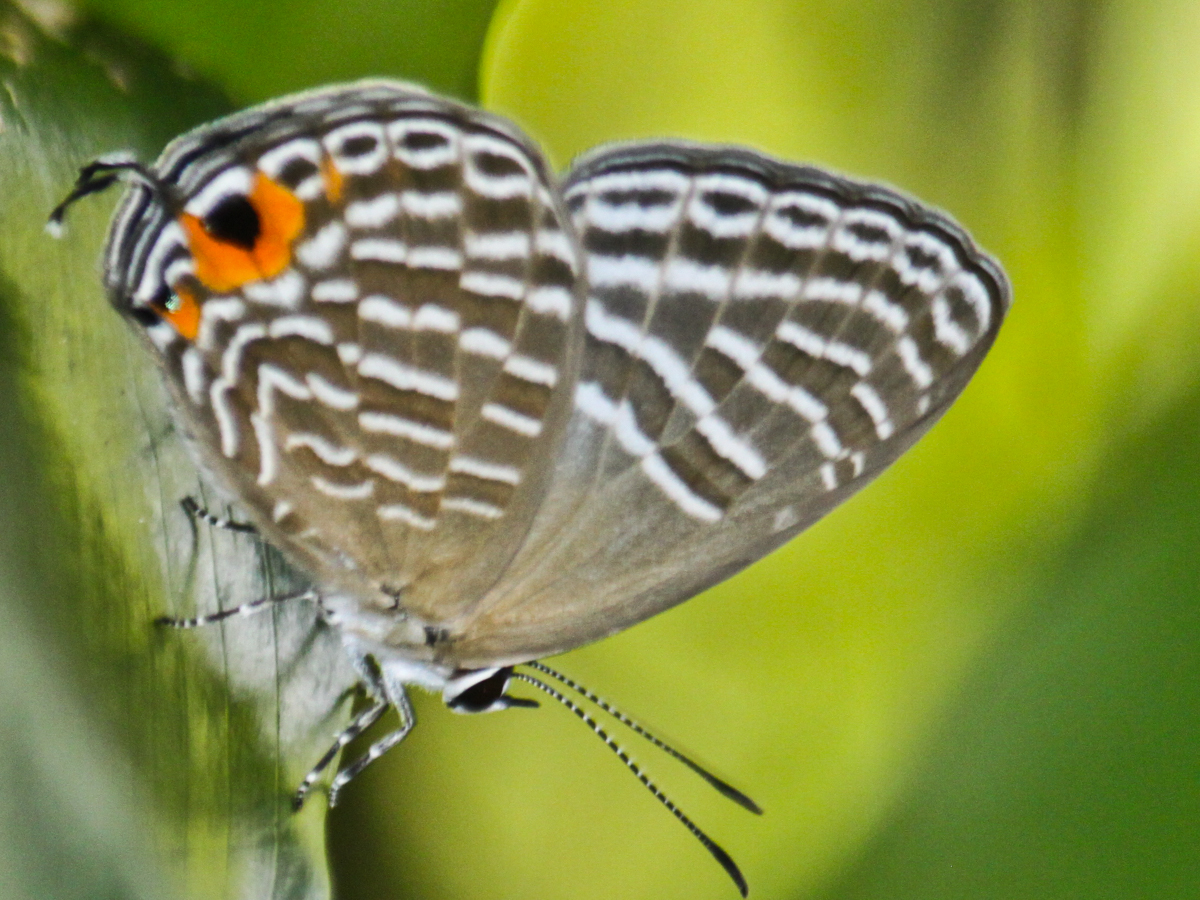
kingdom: Animalia
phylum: Arthropoda
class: Insecta
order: Lepidoptera
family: Lycaenidae
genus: Jamides
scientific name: Jamides alecto
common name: Metallic cerulean
